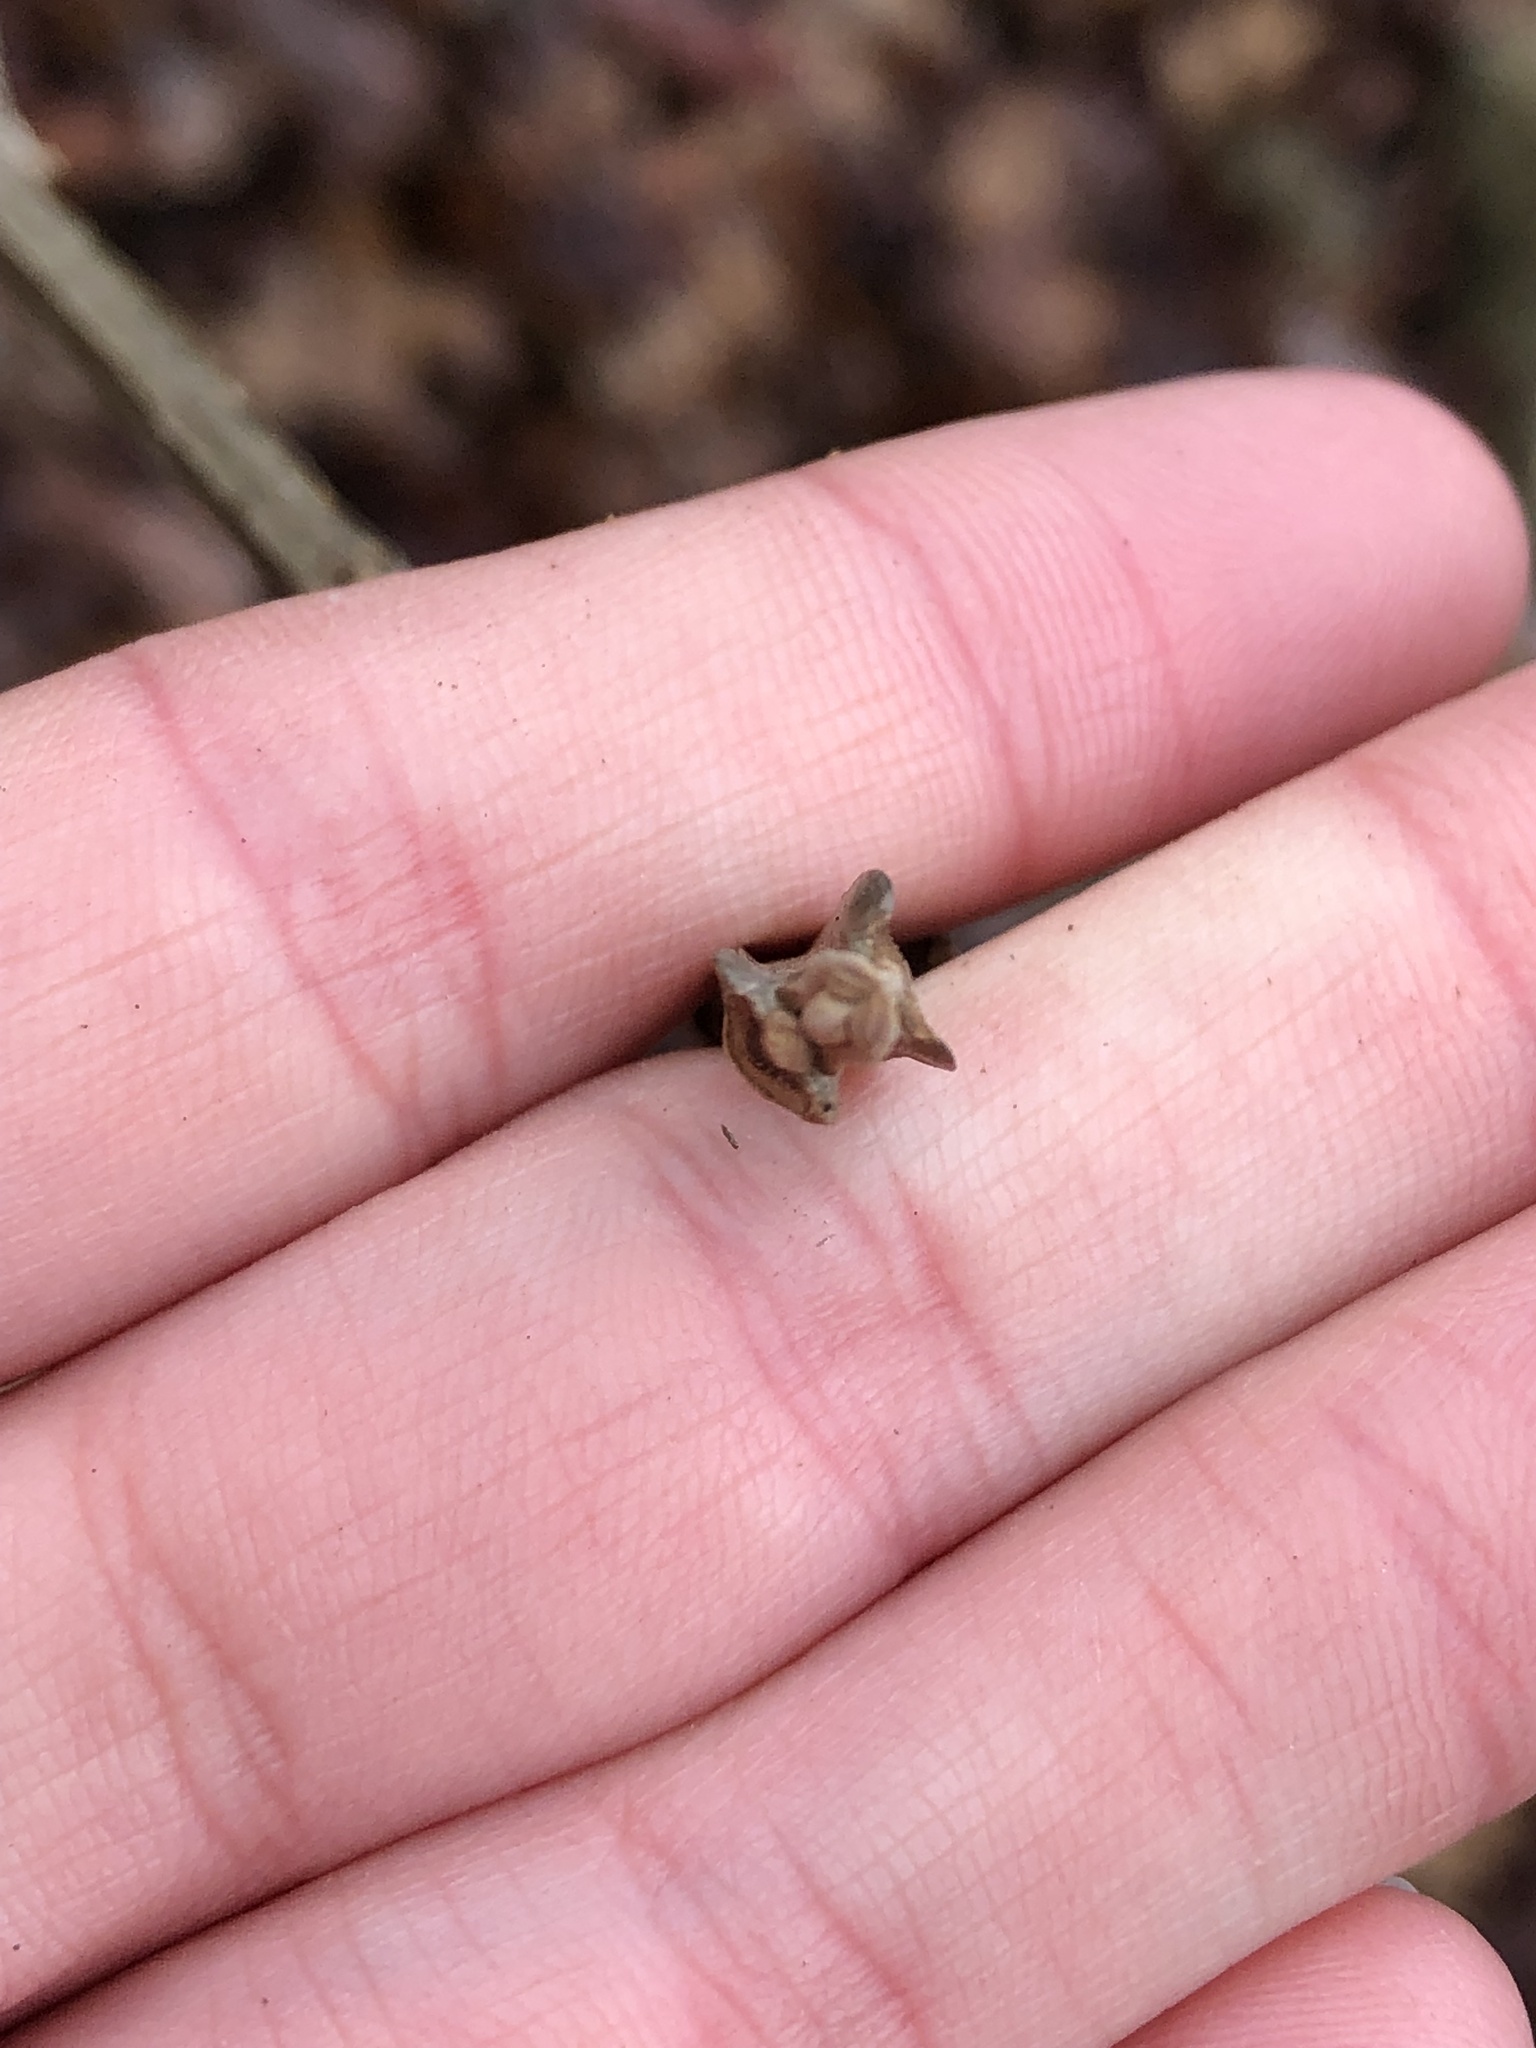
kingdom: Plantae
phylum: Tracheophyta
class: Magnoliopsida
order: Lamiales
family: Oleaceae
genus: Fraxinus
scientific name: Fraxinus quadrangulata
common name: Blue ash
